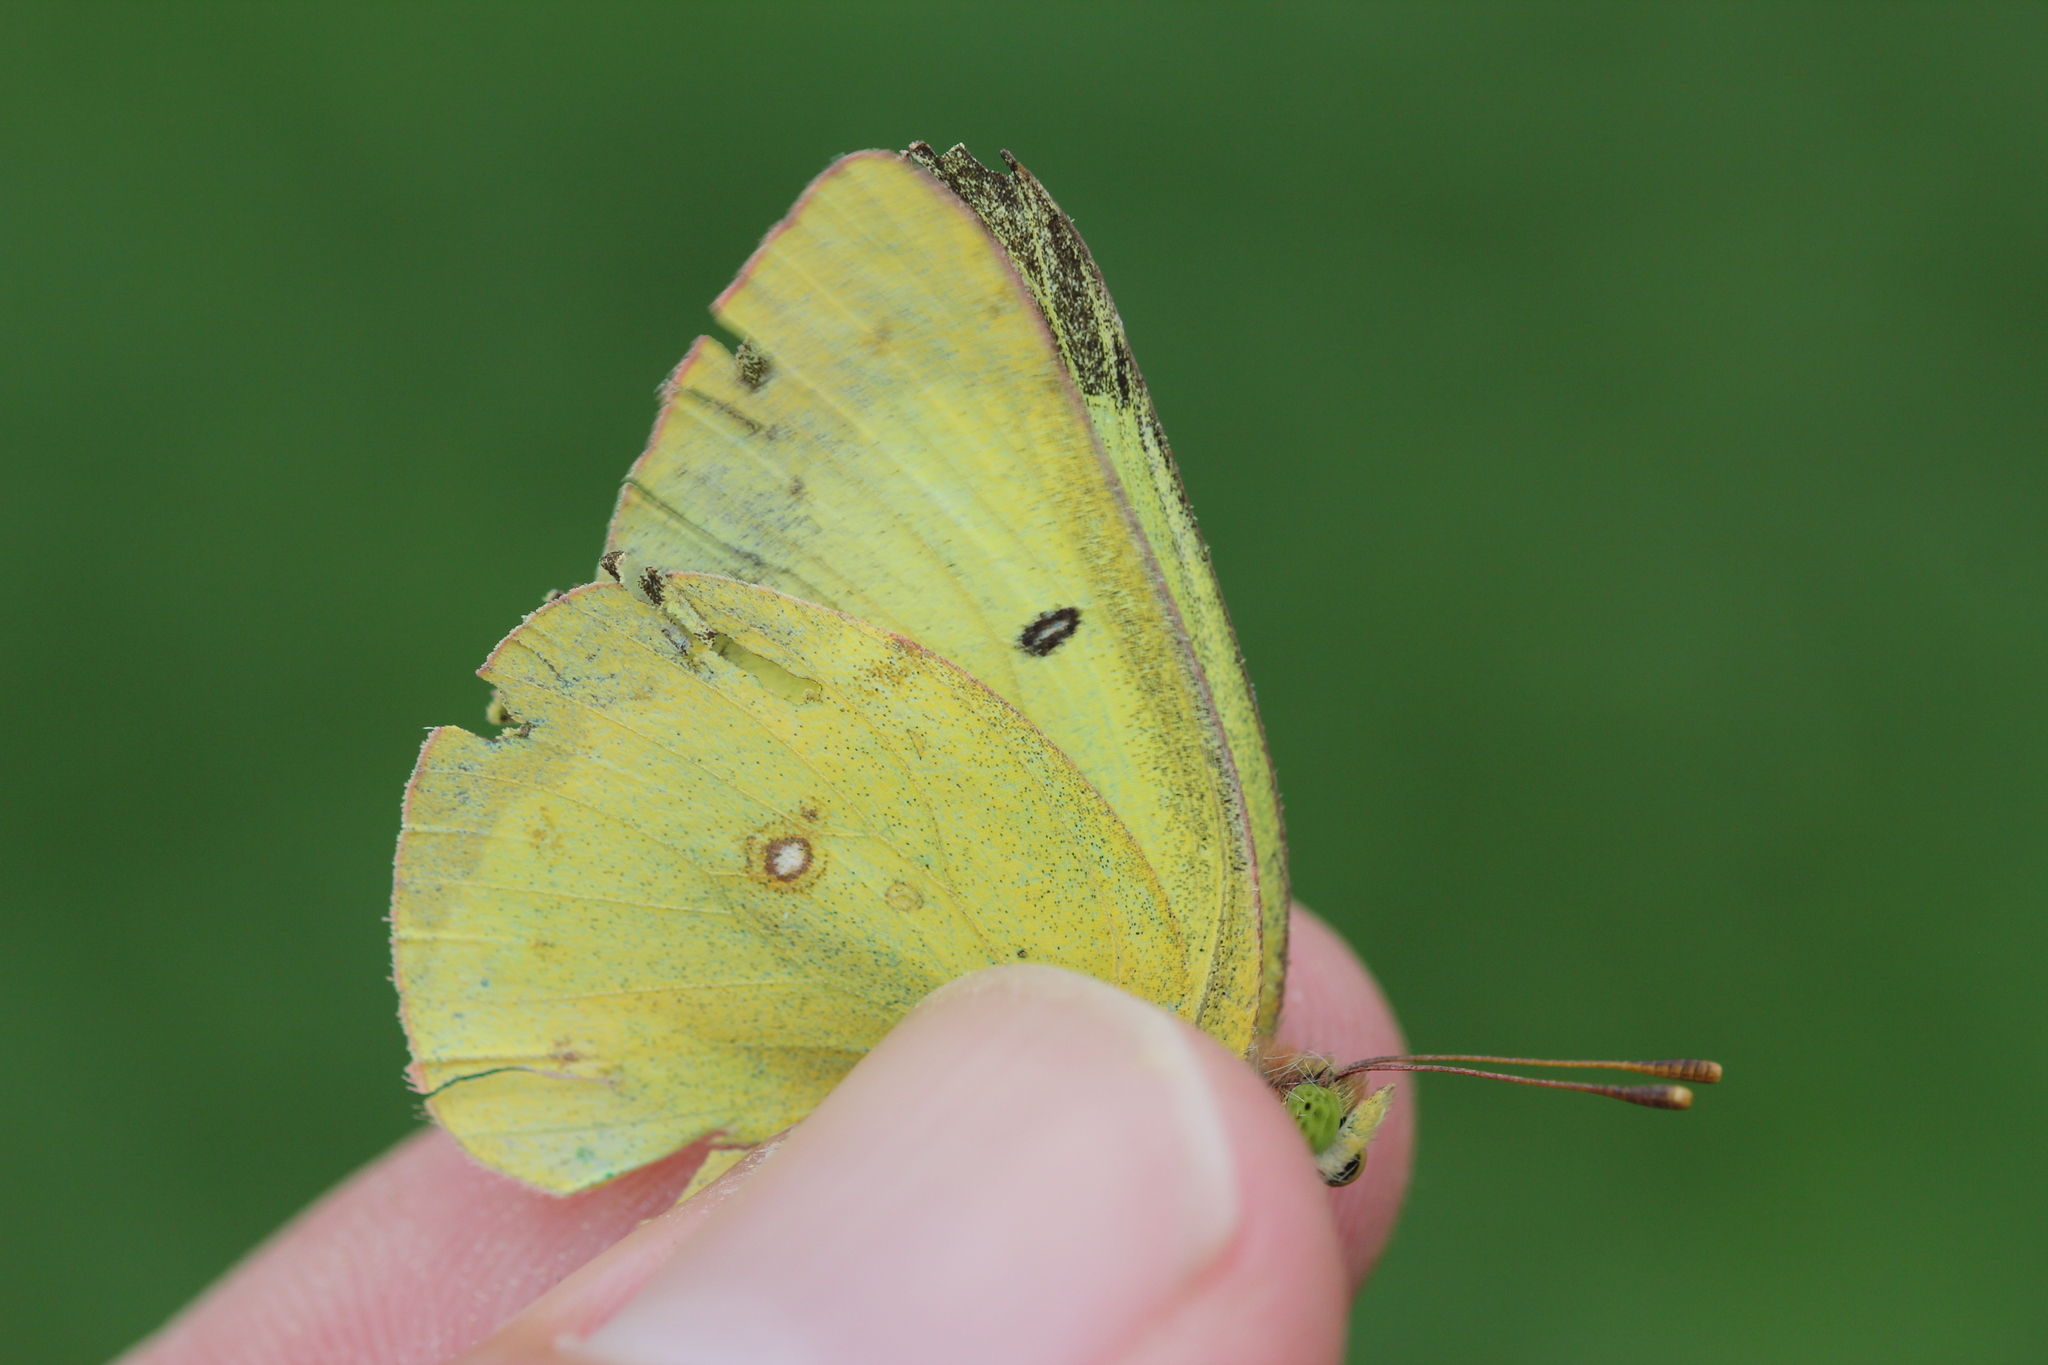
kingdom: Animalia
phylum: Arthropoda
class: Insecta
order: Lepidoptera
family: Pieridae
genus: Colias
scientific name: Colias philodice
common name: Clouded sulphur
